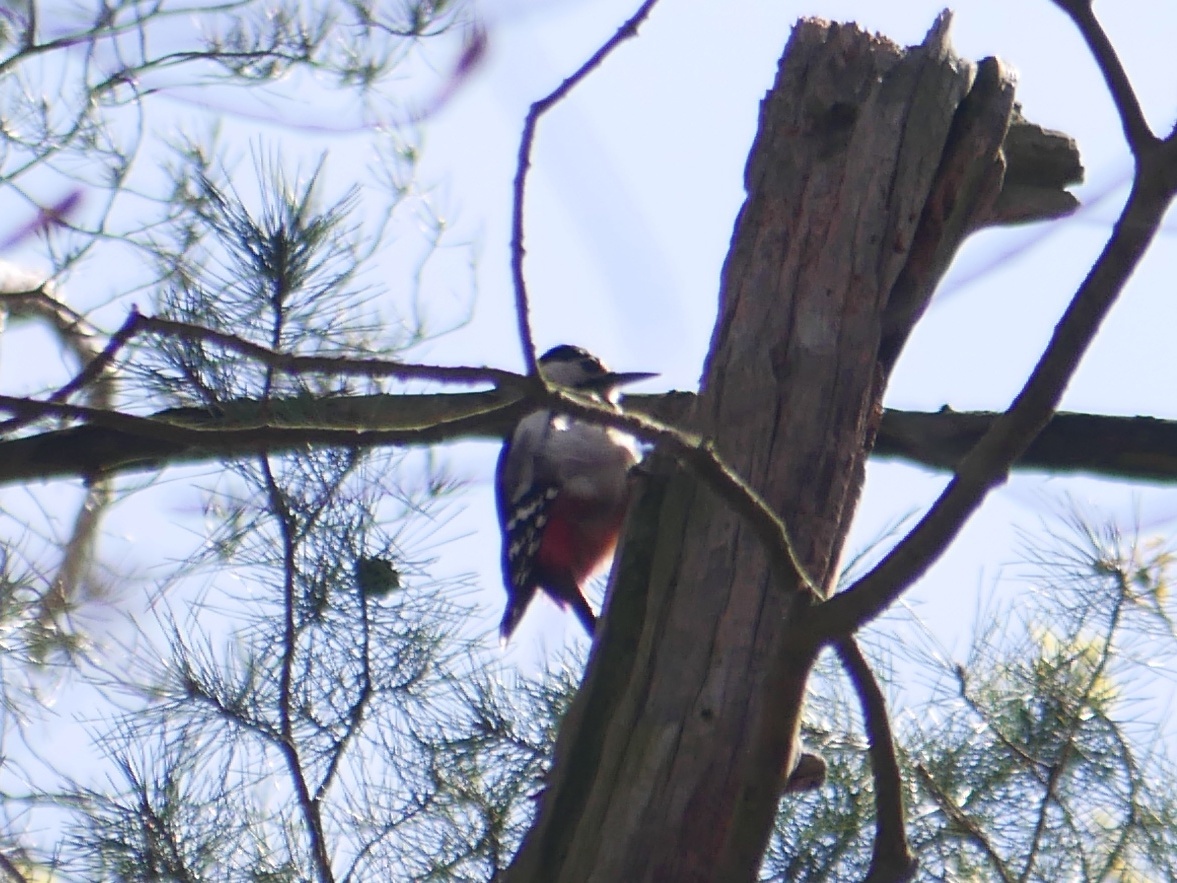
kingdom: Animalia
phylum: Chordata
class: Aves
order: Piciformes
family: Picidae
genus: Dendrocopos
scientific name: Dendrocopos major
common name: Great spotted woodpecker
